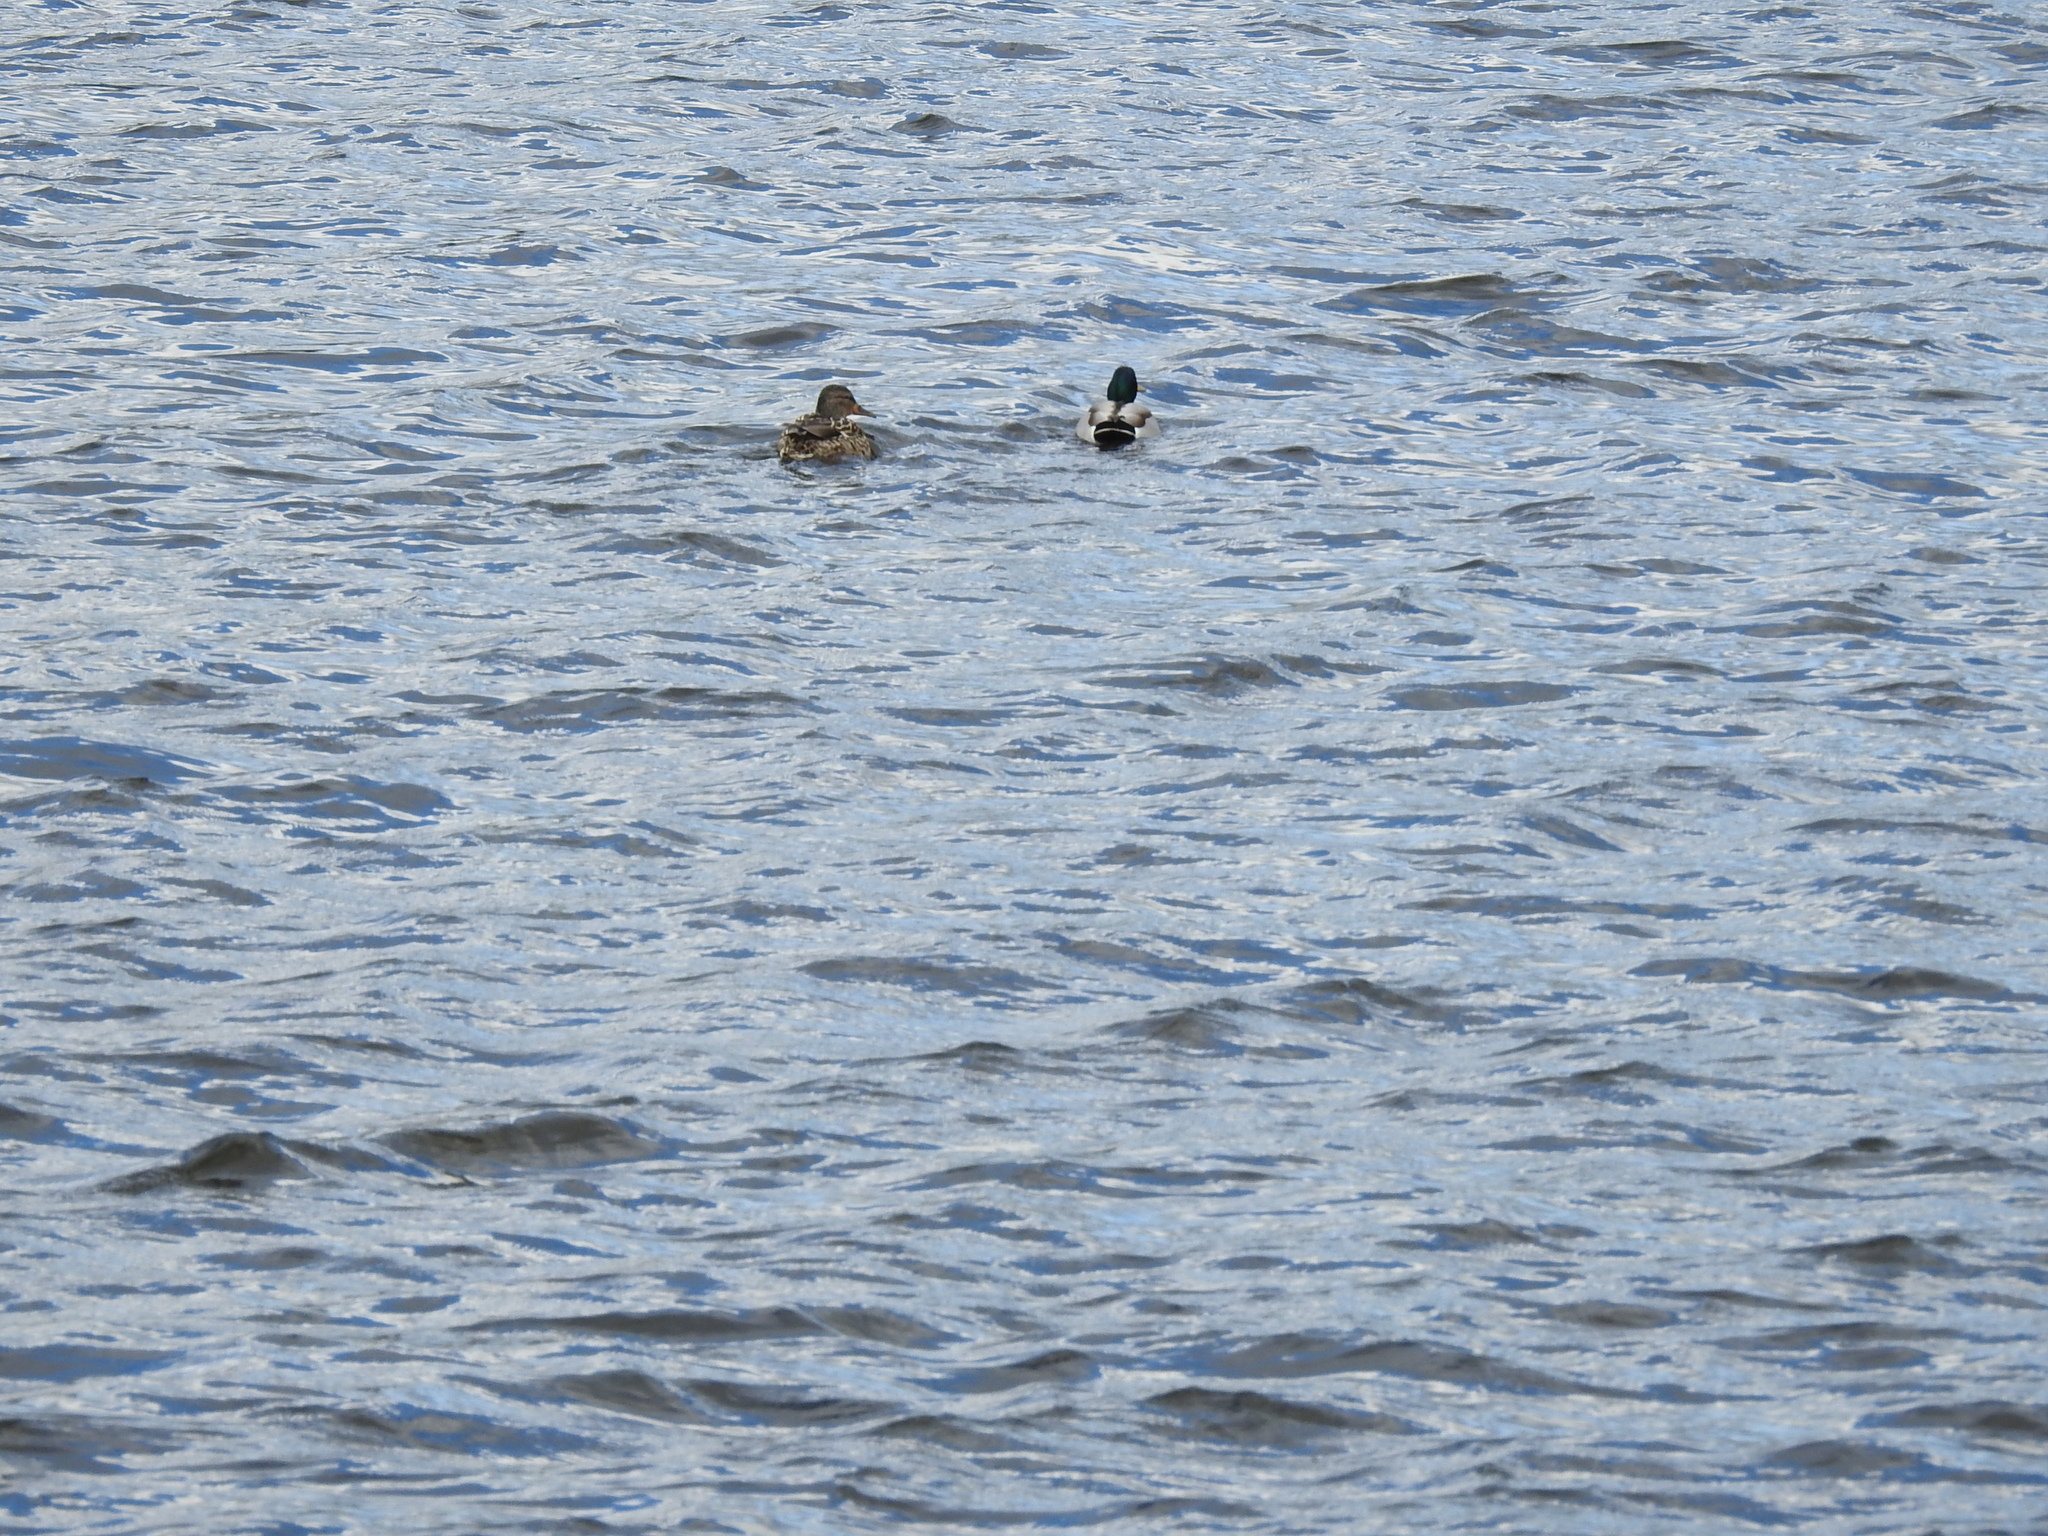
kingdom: Animalia
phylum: Chordata
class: Aves
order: Anseriformes
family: Anatidae
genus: Anas
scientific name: Anas platyrhynchos
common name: Mallard
